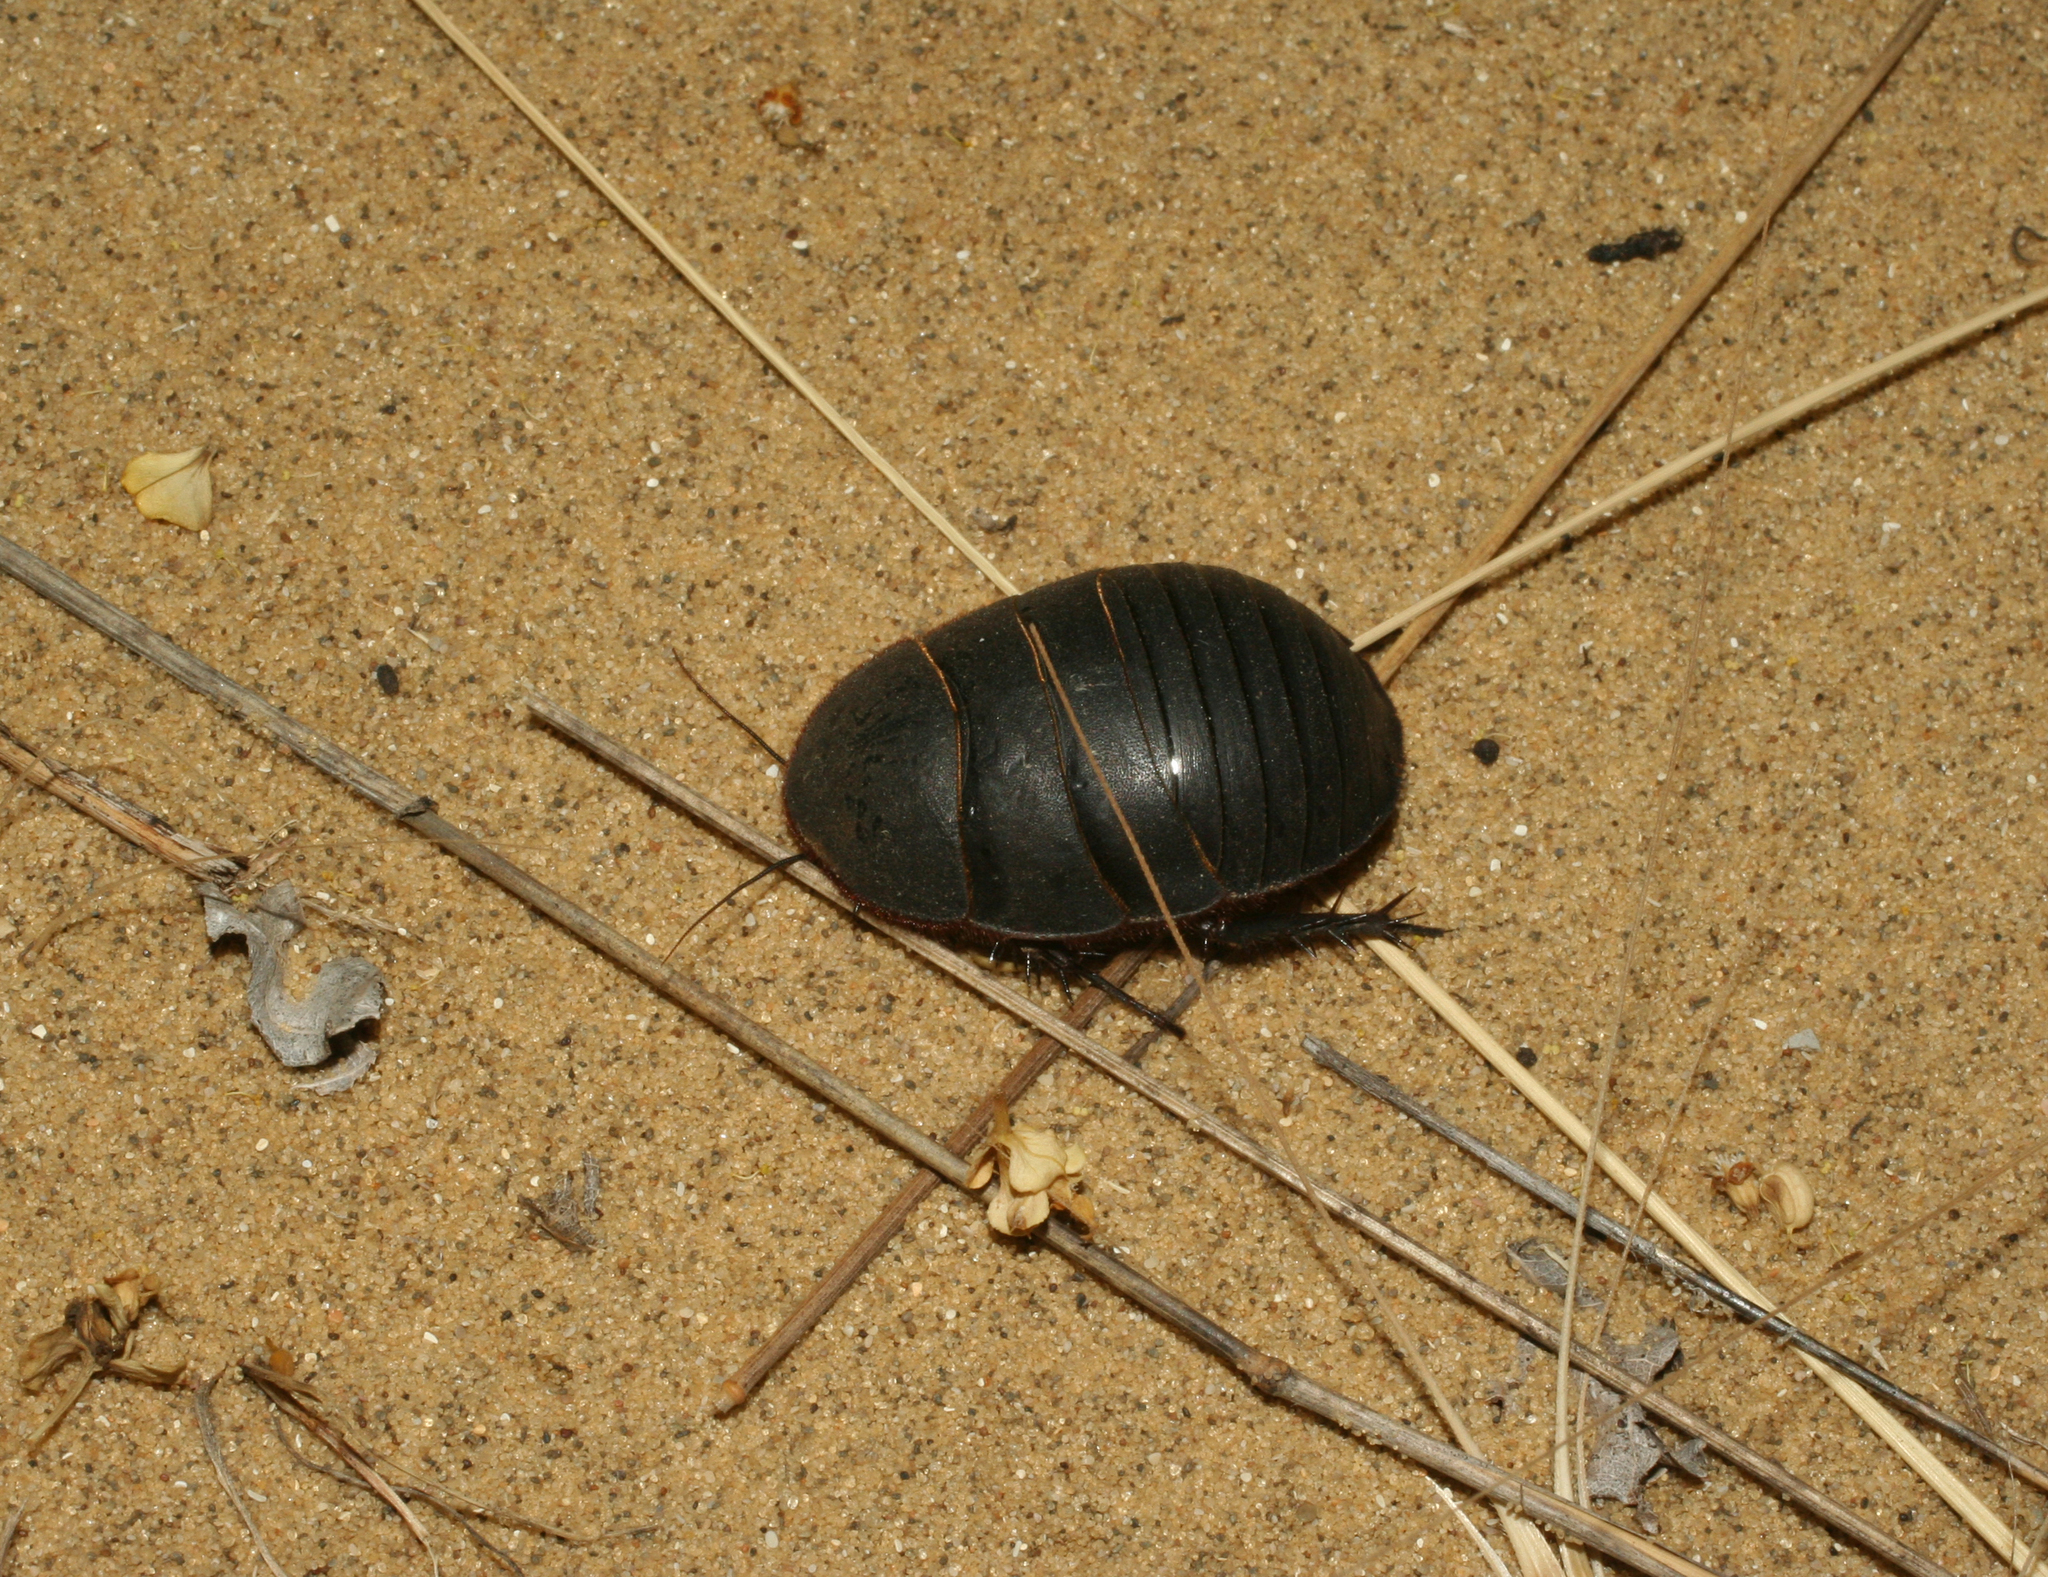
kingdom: Animalia
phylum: Arthropoda
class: Insecta
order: Blattodea
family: Corydiidae
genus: Polyphaga
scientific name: Polyphaga aegyptiaca
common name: Egyptian cockroach
